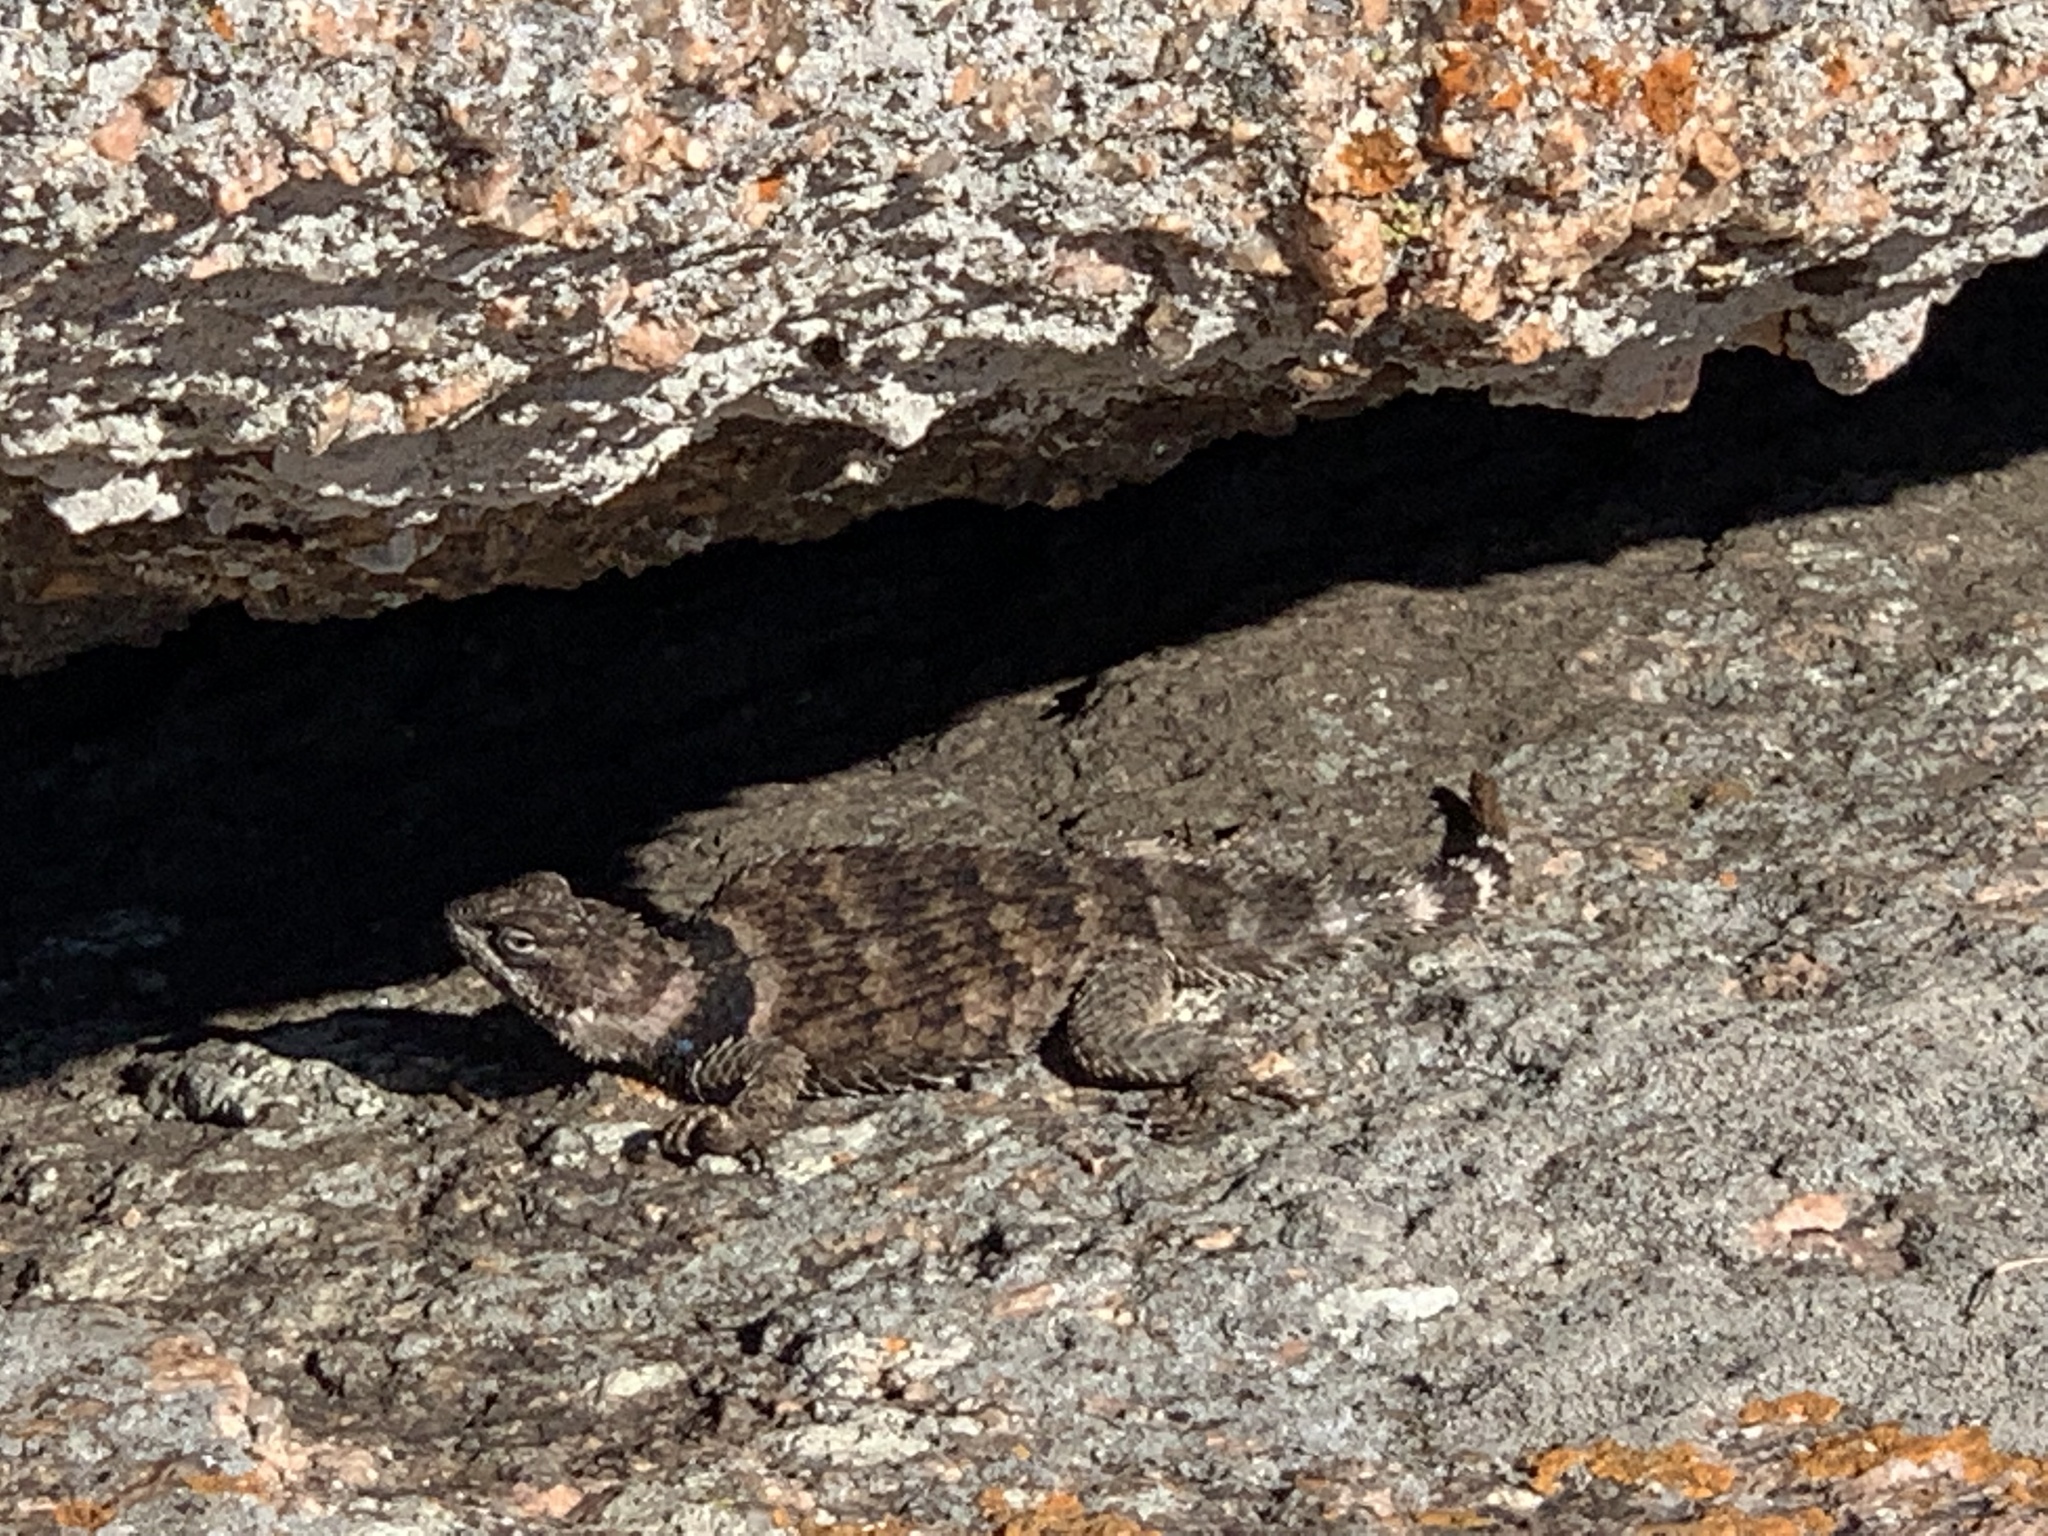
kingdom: Animalia
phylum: Chordata
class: Squamata
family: Phrynosomatidae
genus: Sceloporus
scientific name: Sceloporus poinsettii
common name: Crevice spiny lizard
